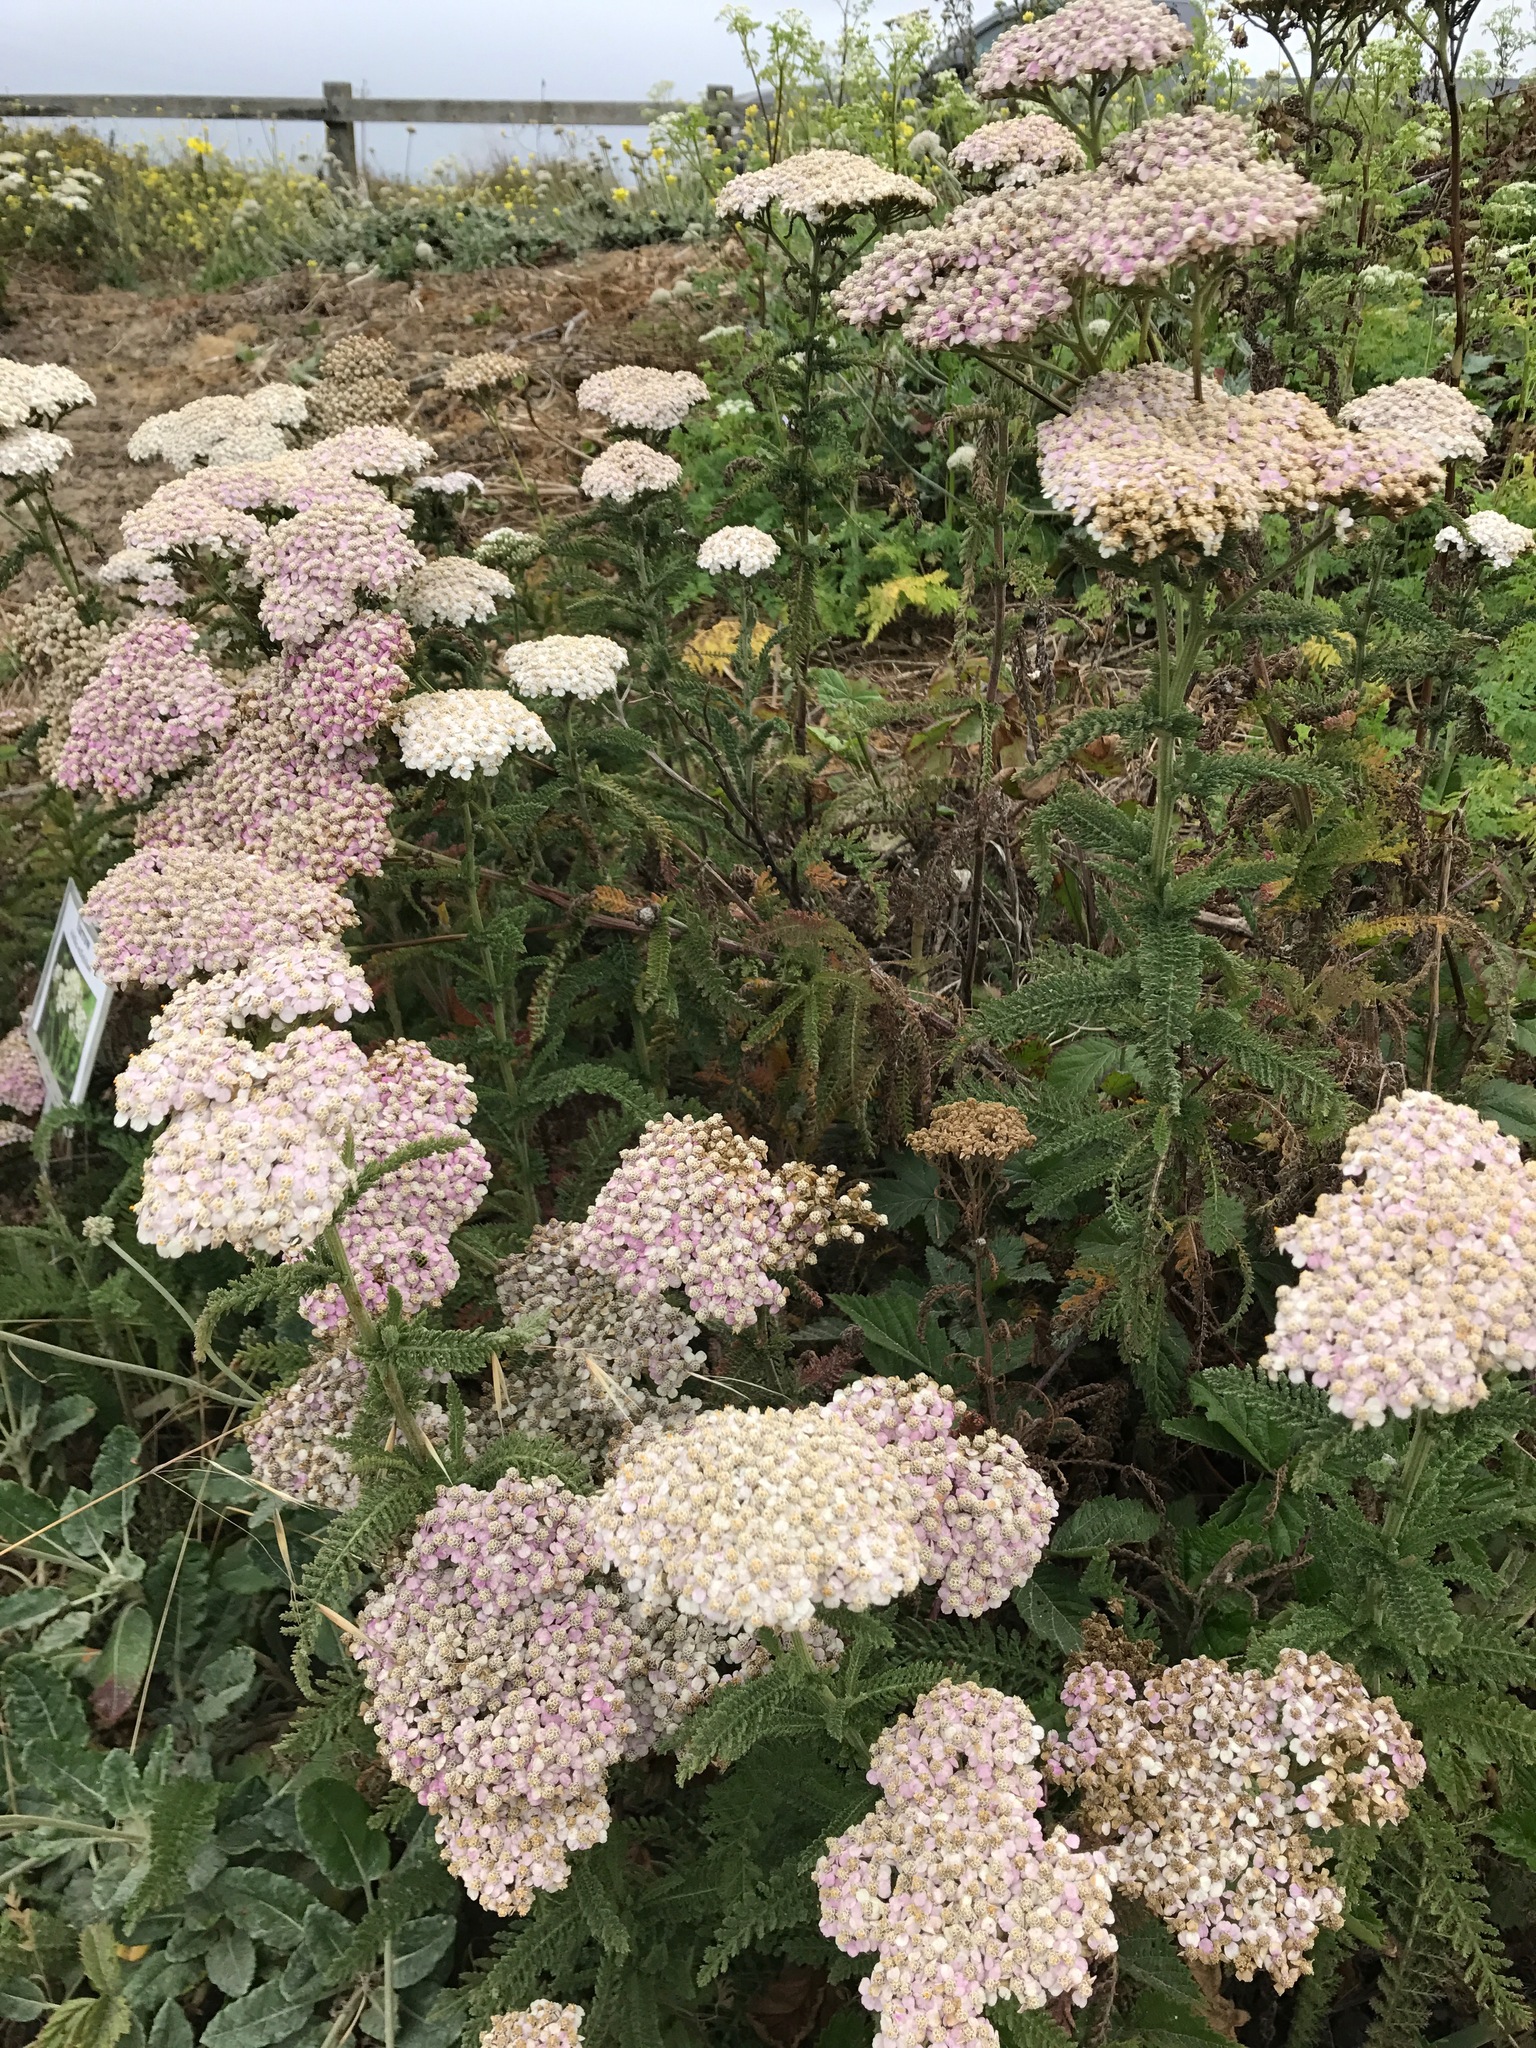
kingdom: Plantae
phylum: Tracheophyta
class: Magnoliopsida
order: Asterales
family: Asteraceae
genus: Achillea
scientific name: Achillea millefolium
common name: Yarrow
